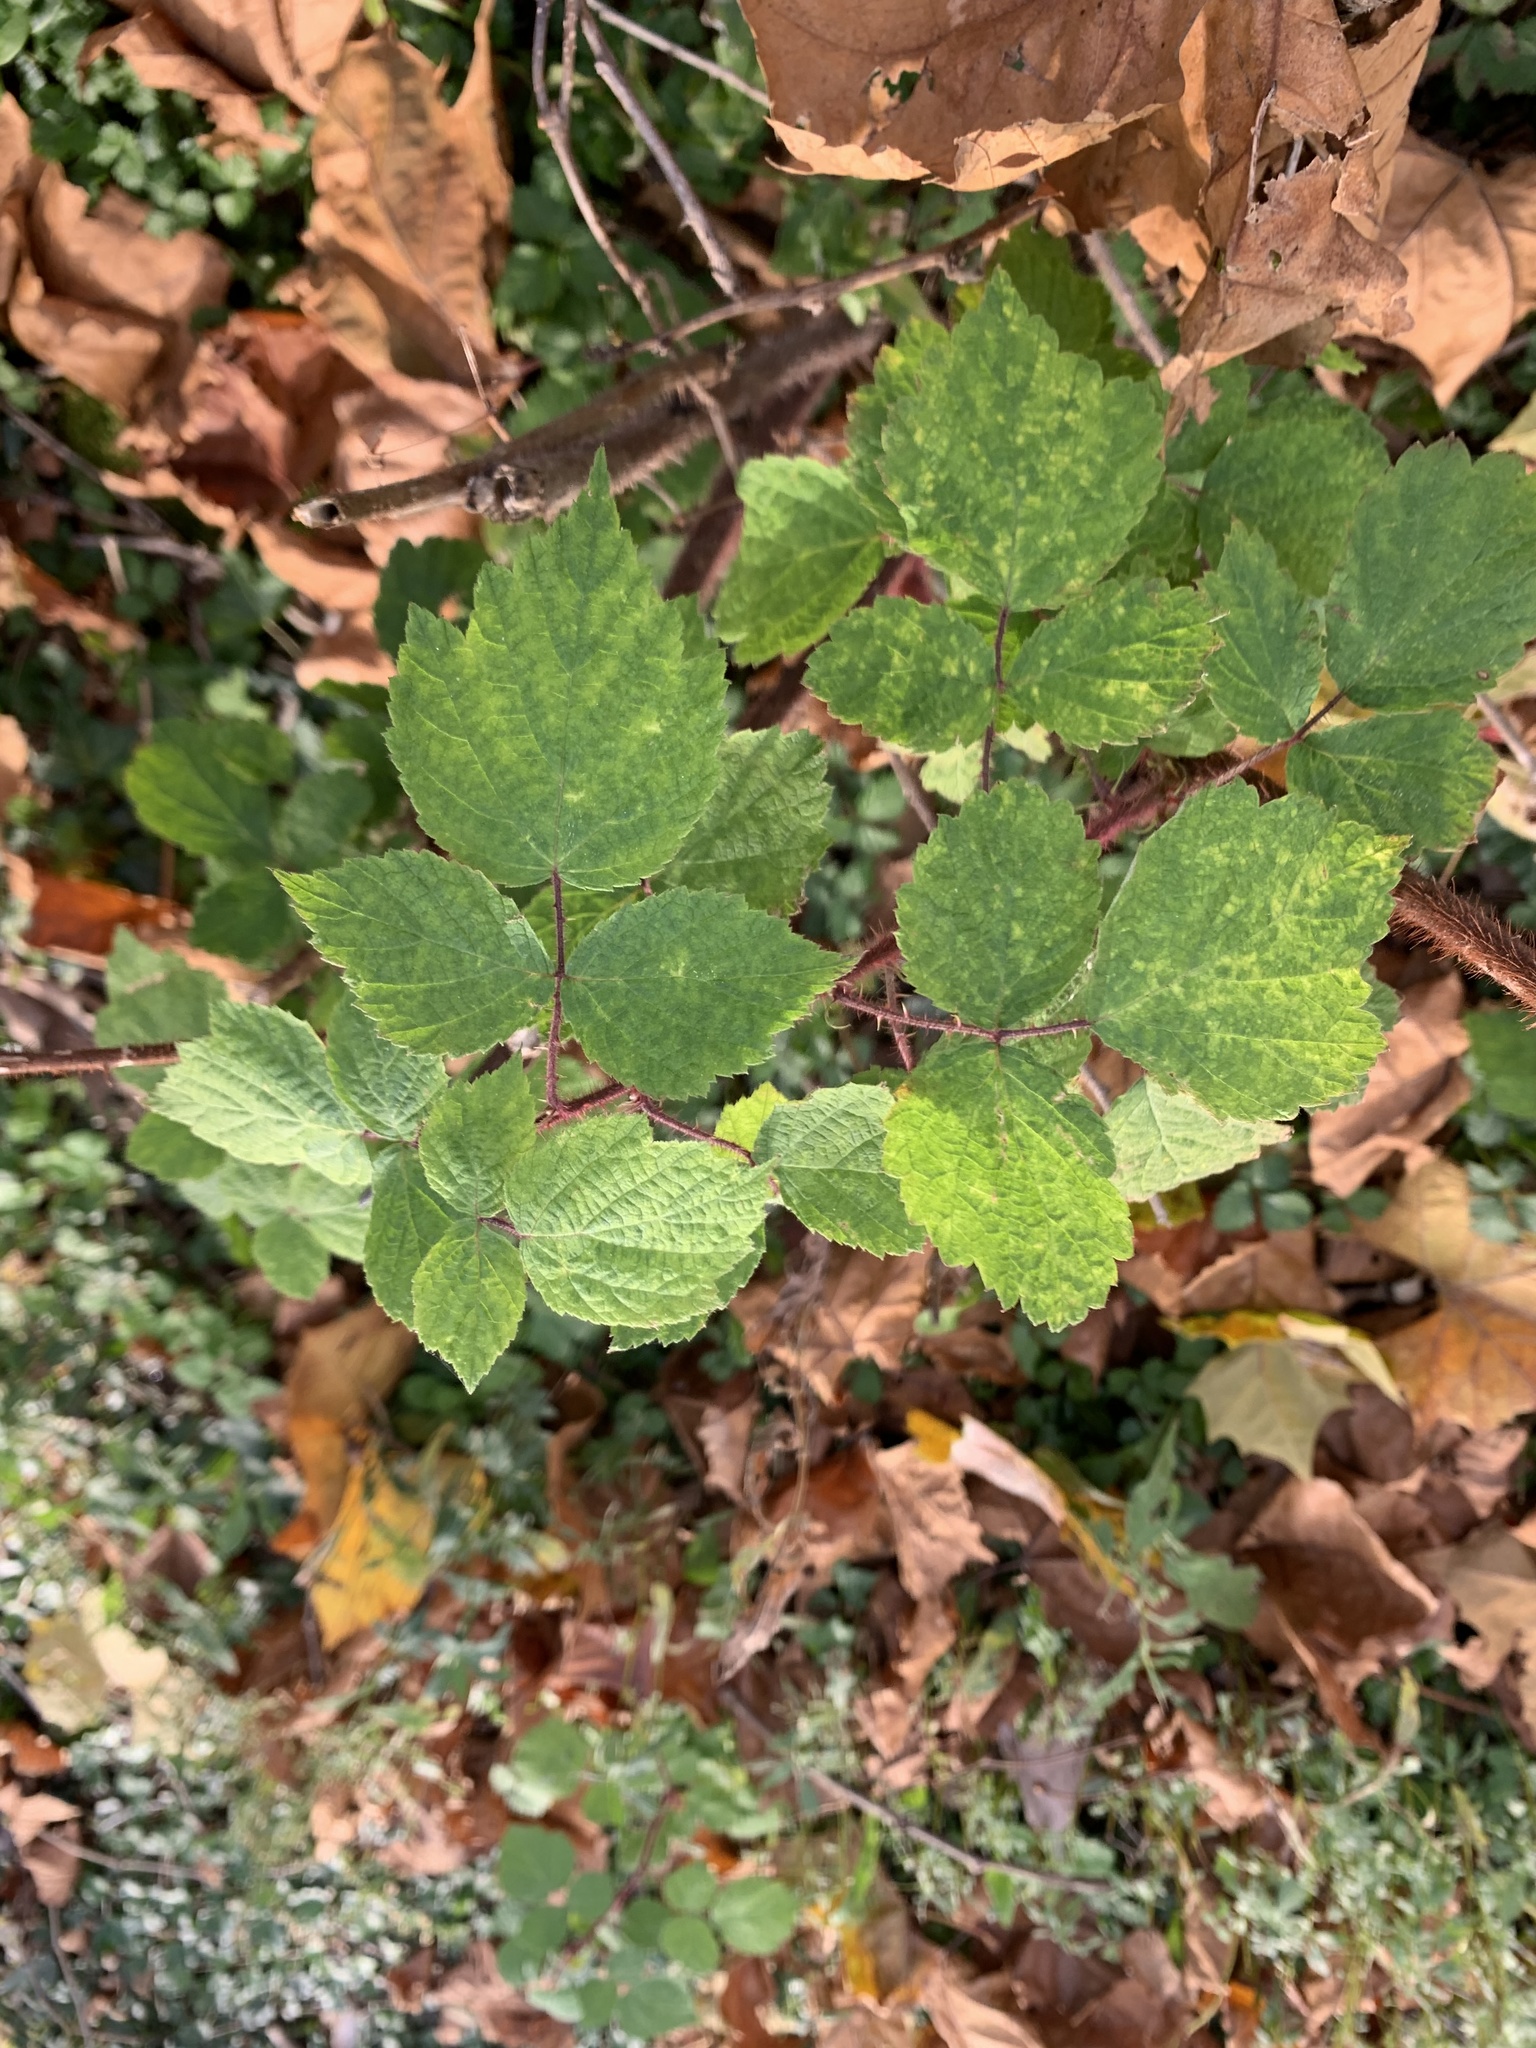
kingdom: Plantae
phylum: Tracheophyta
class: Magnoliopsida
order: Rosales
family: Rosaceae
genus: Rubus
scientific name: Rubus phoenicolasius
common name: Japanese wineberry
